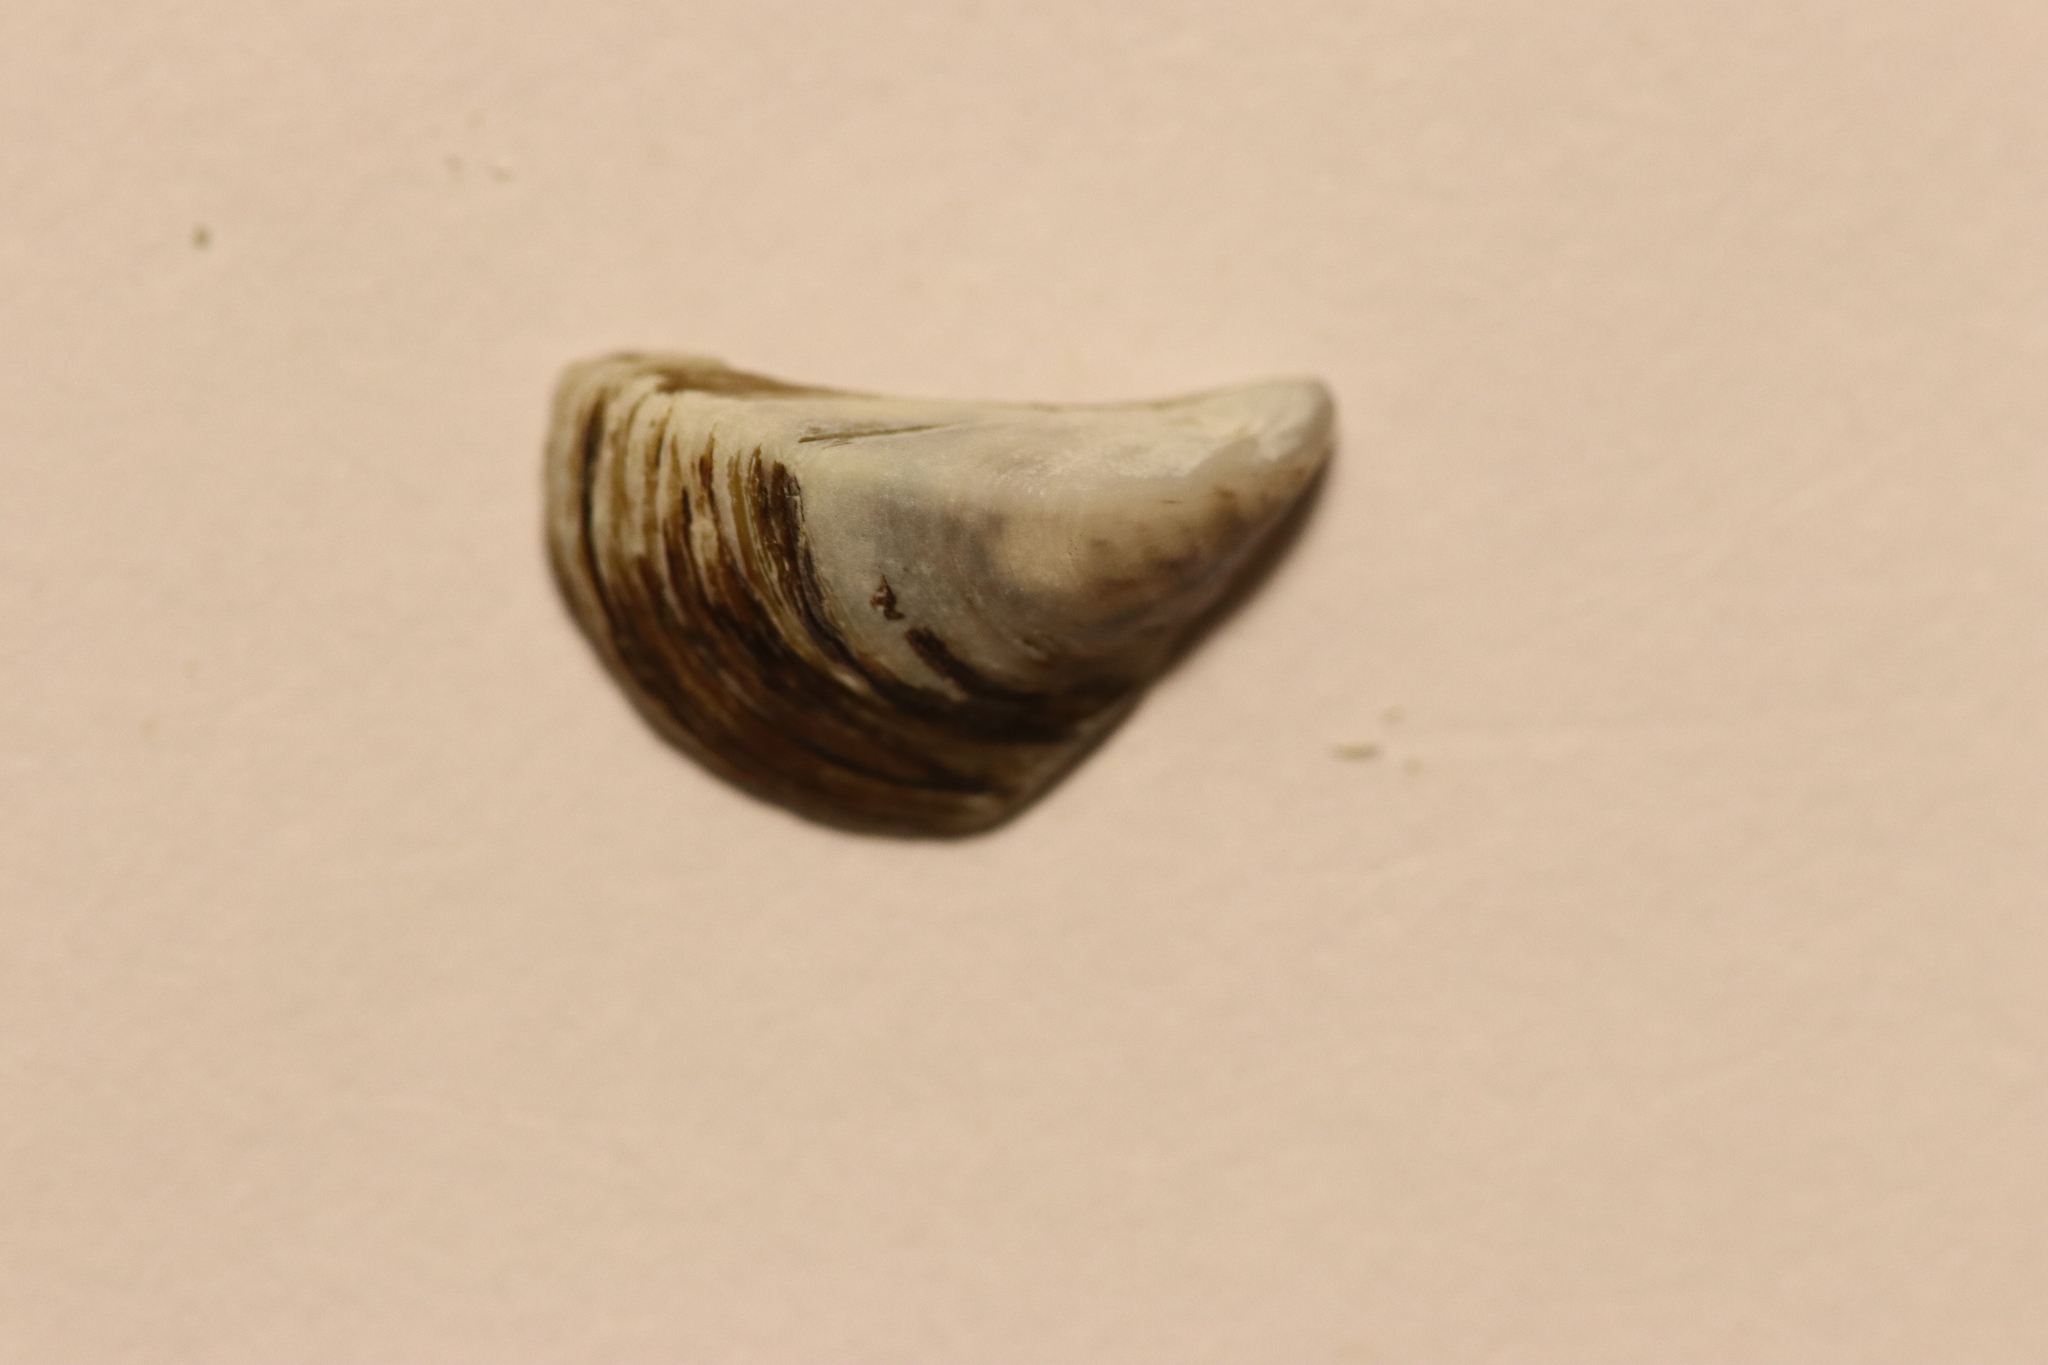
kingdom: Animalia
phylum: Mollusca
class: Bivalvia
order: Myida
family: Dreissenidae
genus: Dreissena
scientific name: Dreissena polymorpha
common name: Zebra mussel
